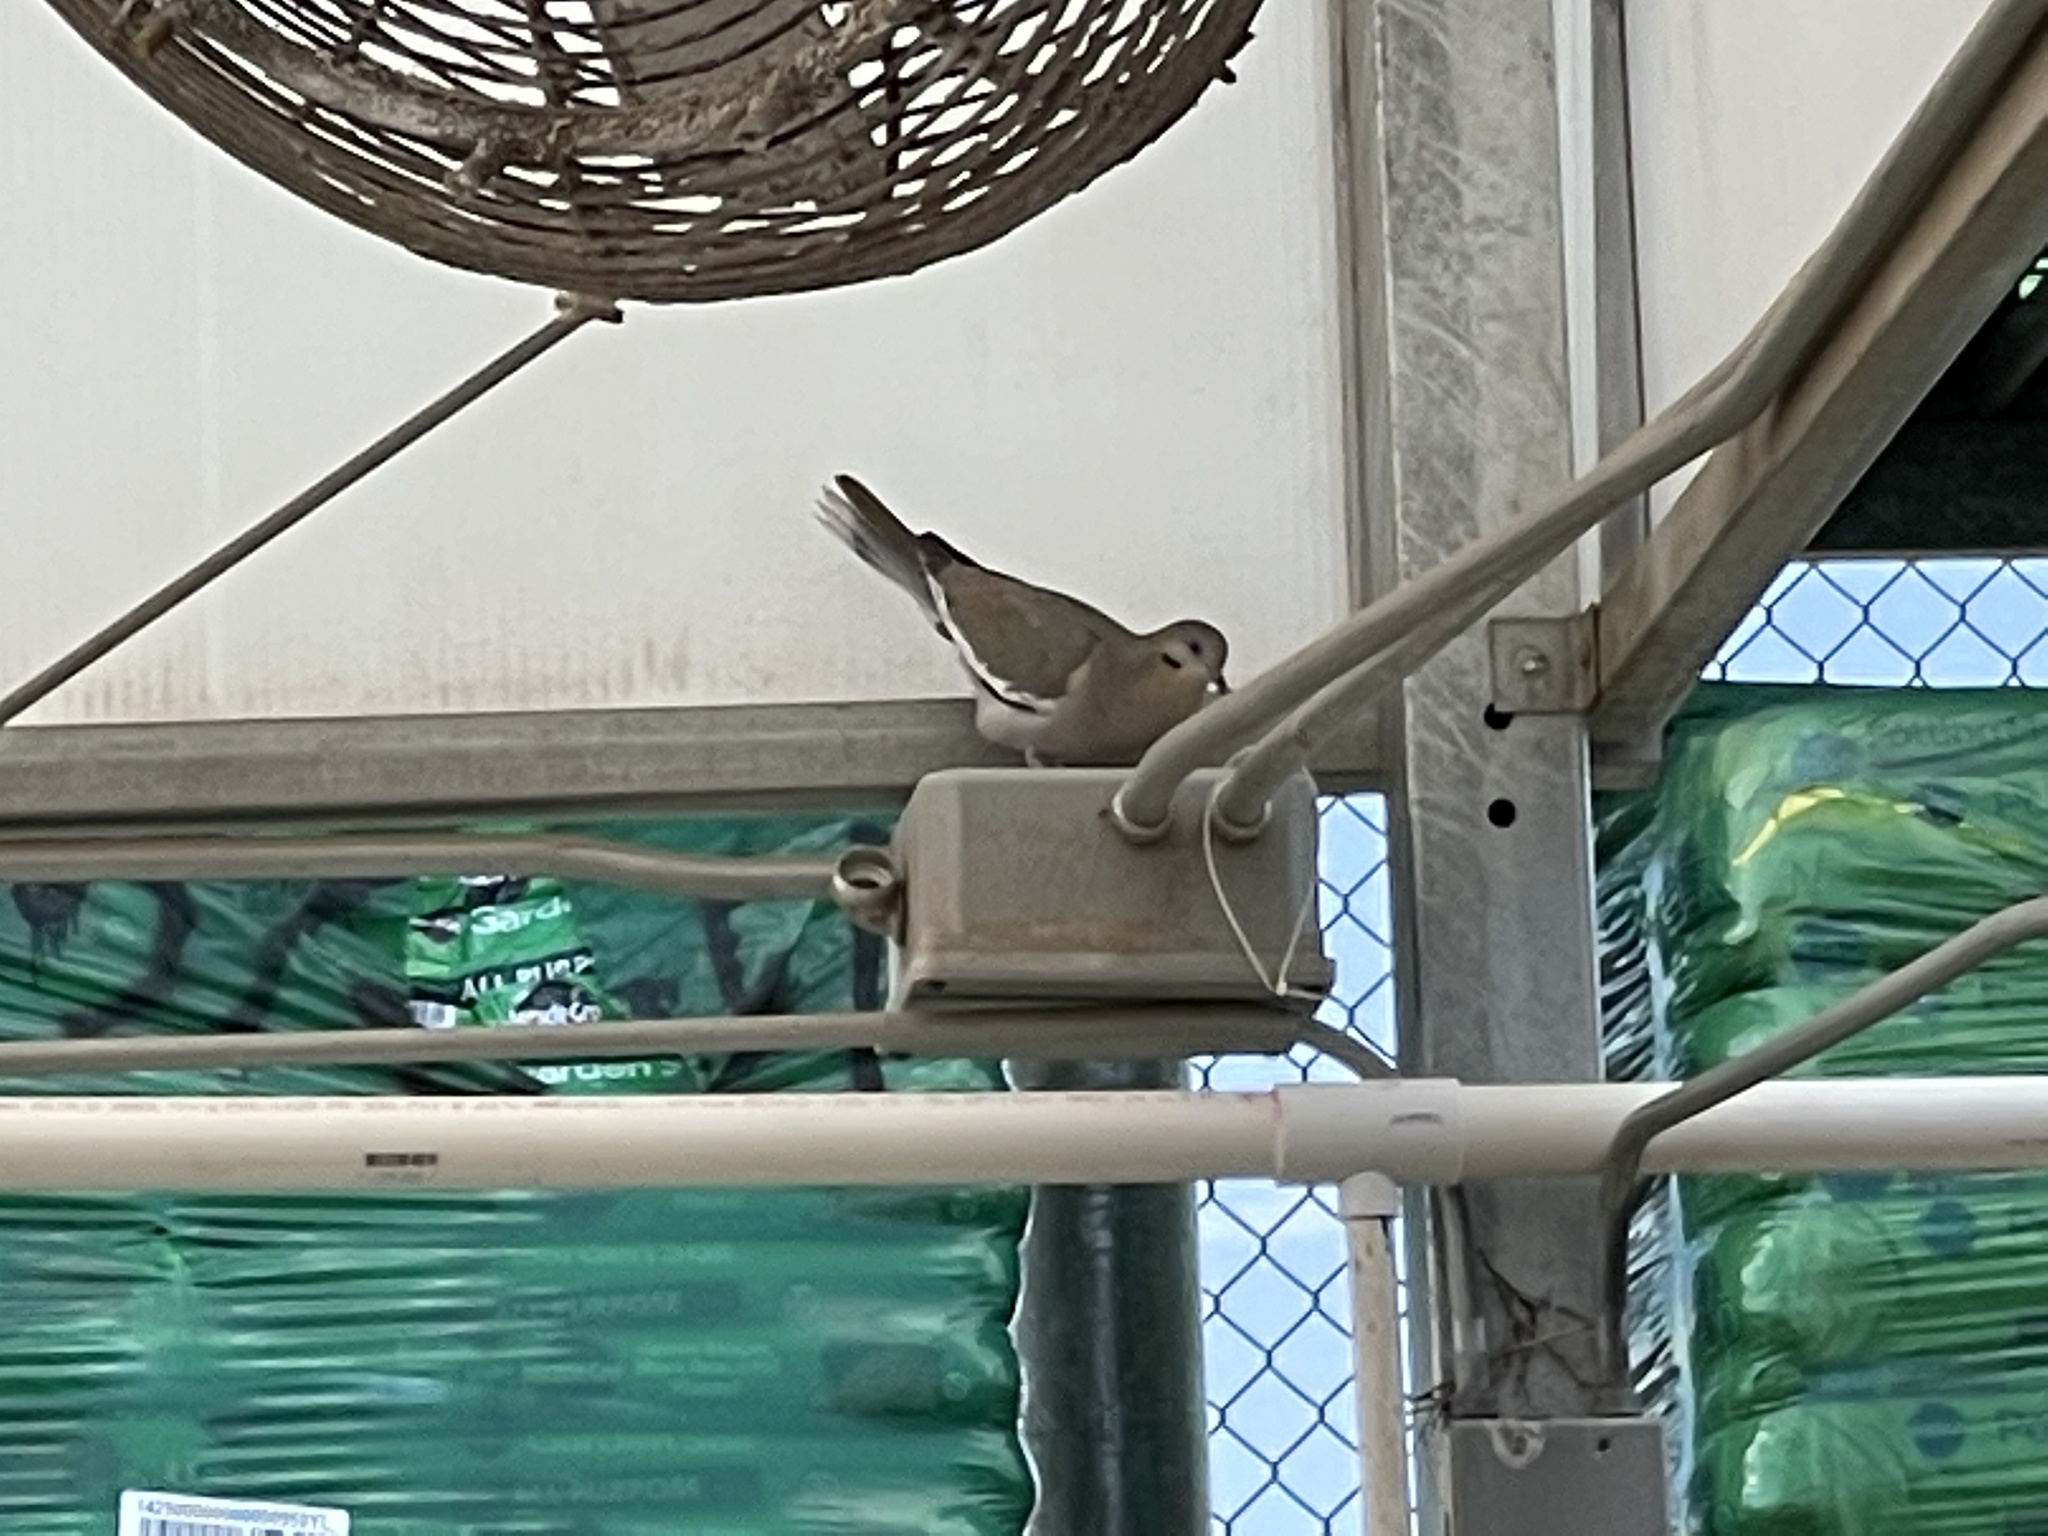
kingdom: Animalia
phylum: Chordata
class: Aves
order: Columbiformes
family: Columbidae
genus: Zenaida
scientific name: Zenaida asiatica
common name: White-winged dove
